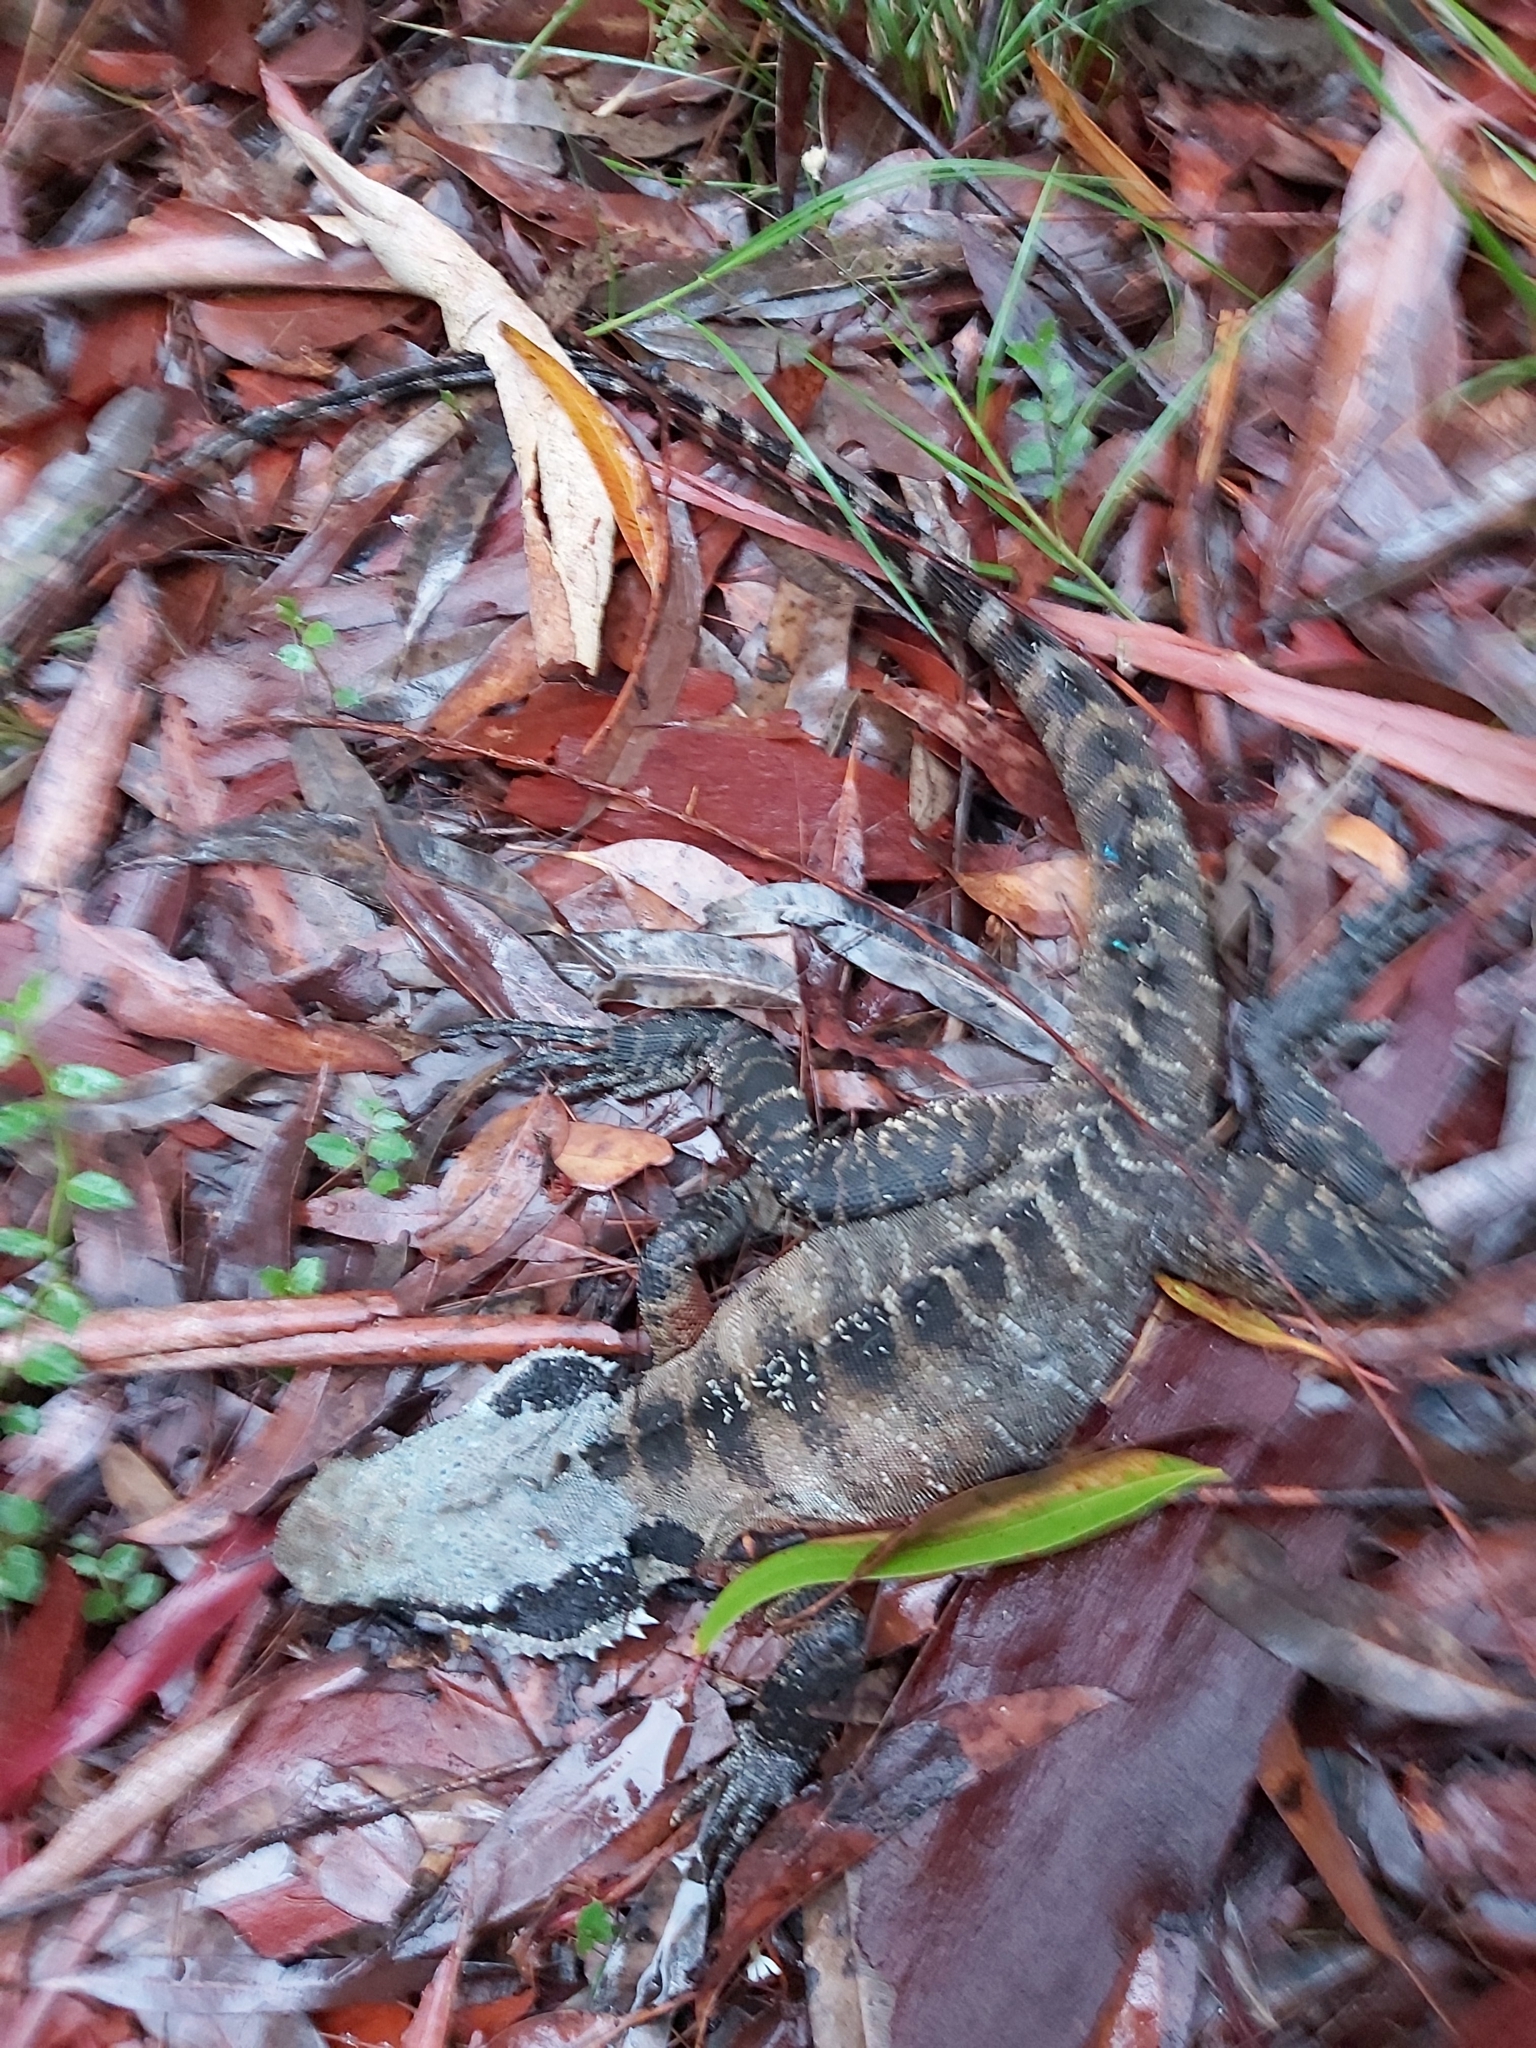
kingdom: Animalia
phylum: Chordata
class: Squamata
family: Agamidae
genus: Intellagama
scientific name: Intellagama lesueurii
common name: Eastern water dragon
